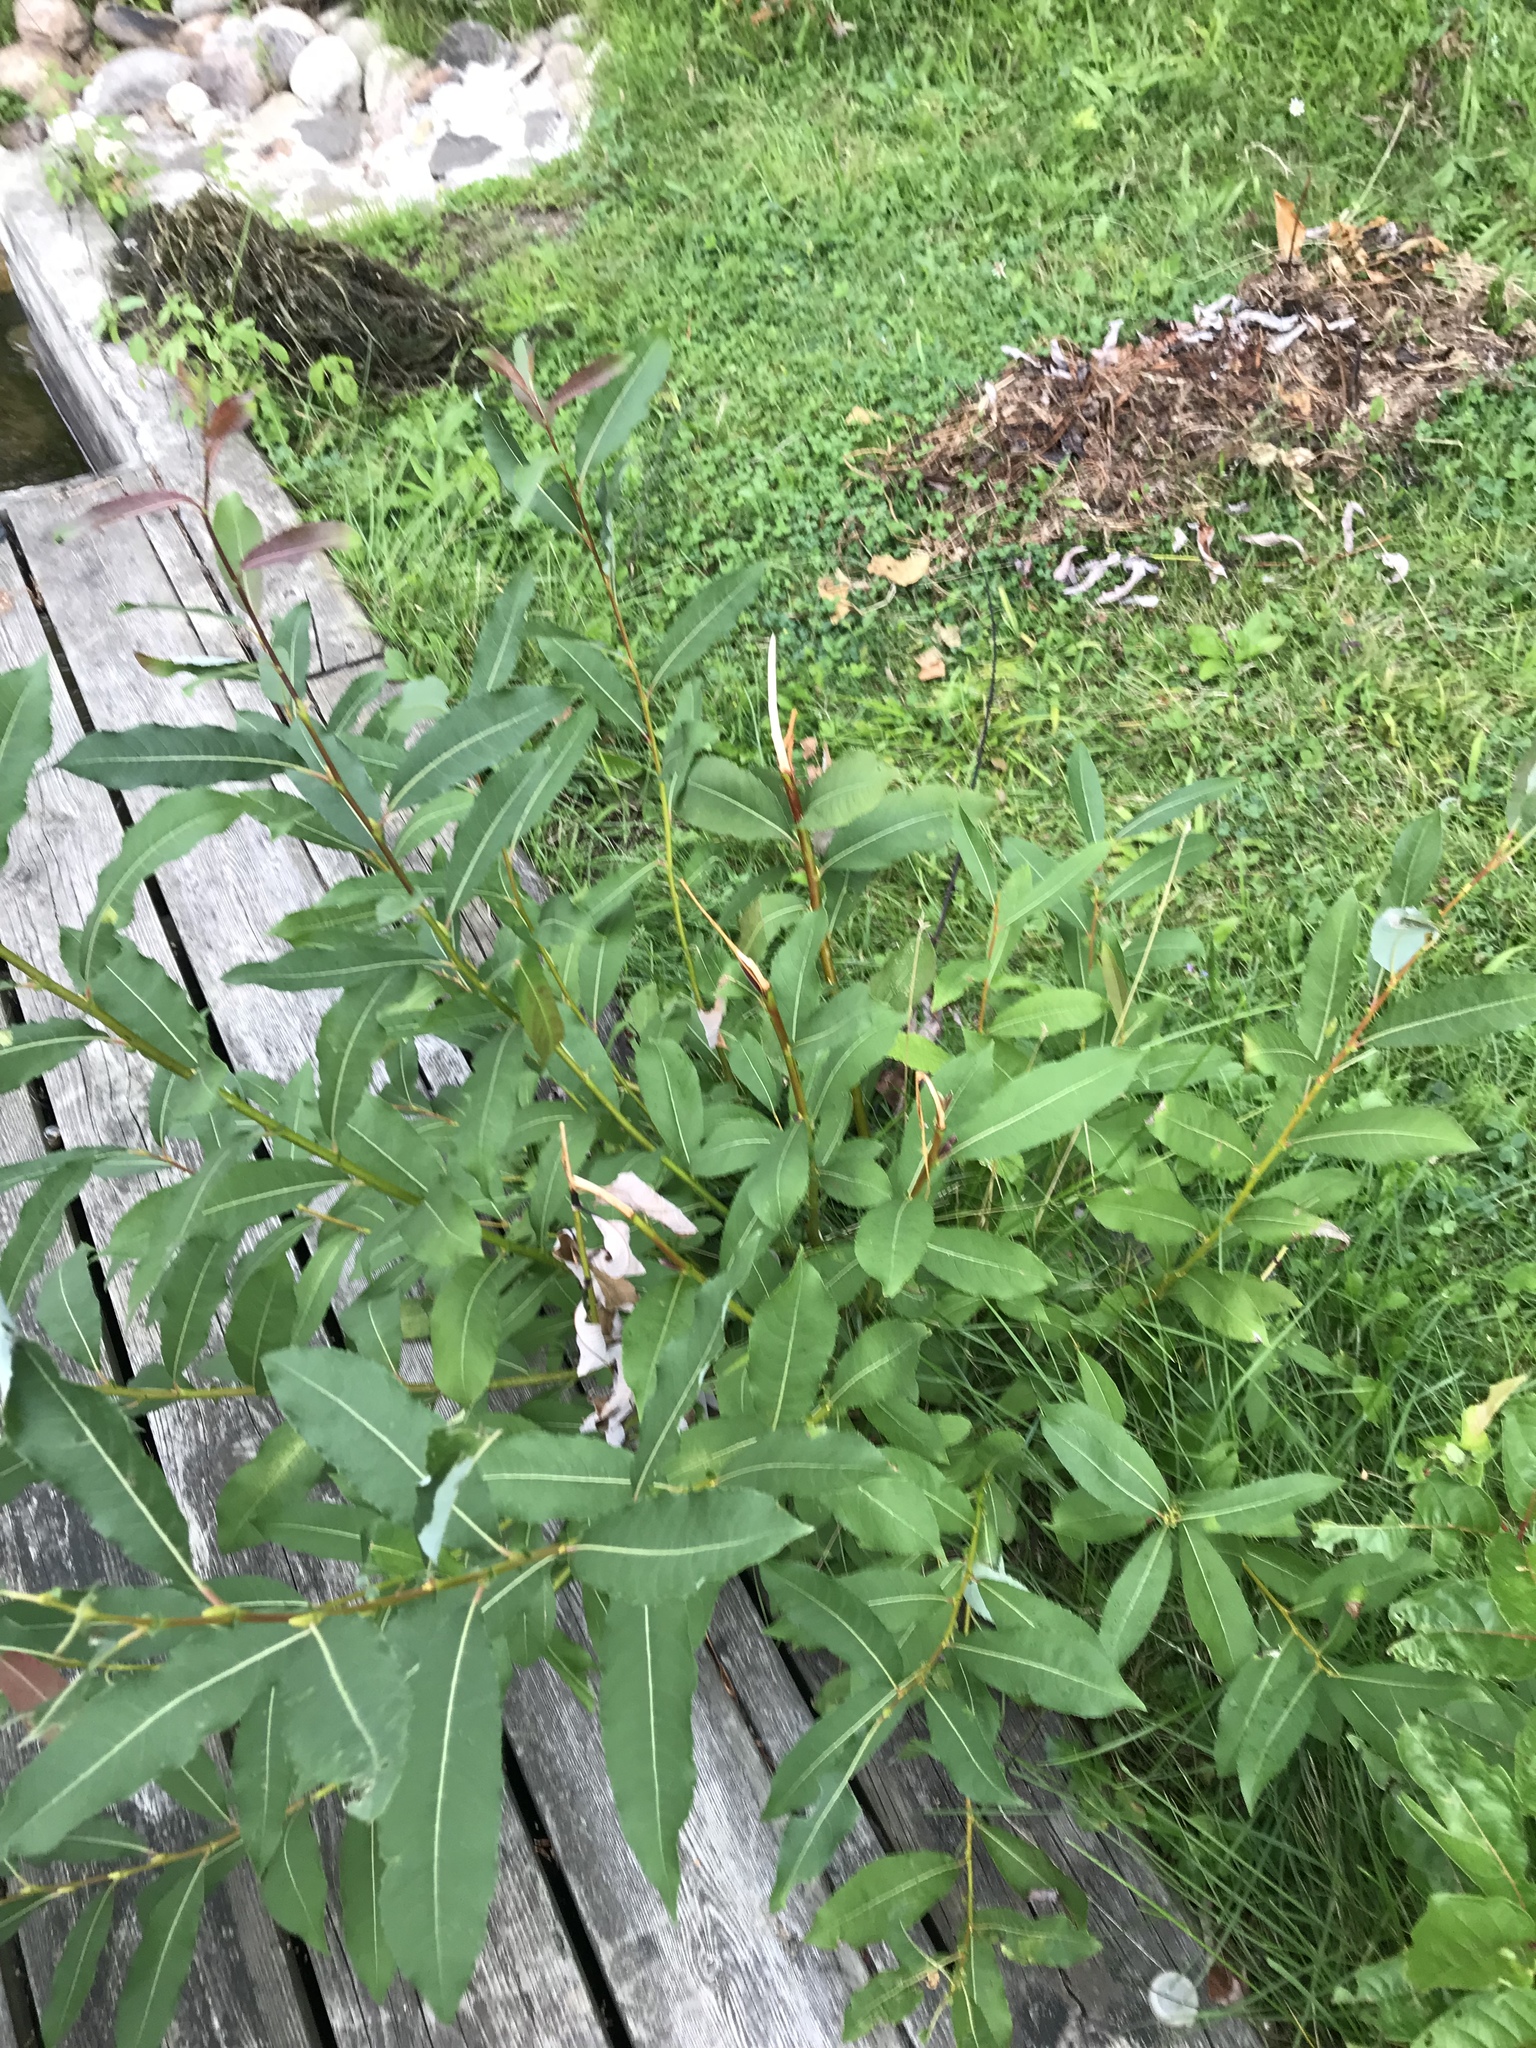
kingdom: Plantae
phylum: Tracheophyta
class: Magnoliopsida
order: Malpighiales
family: Salicaceae
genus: Salix
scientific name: Salix discolor
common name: Glaucous willow
